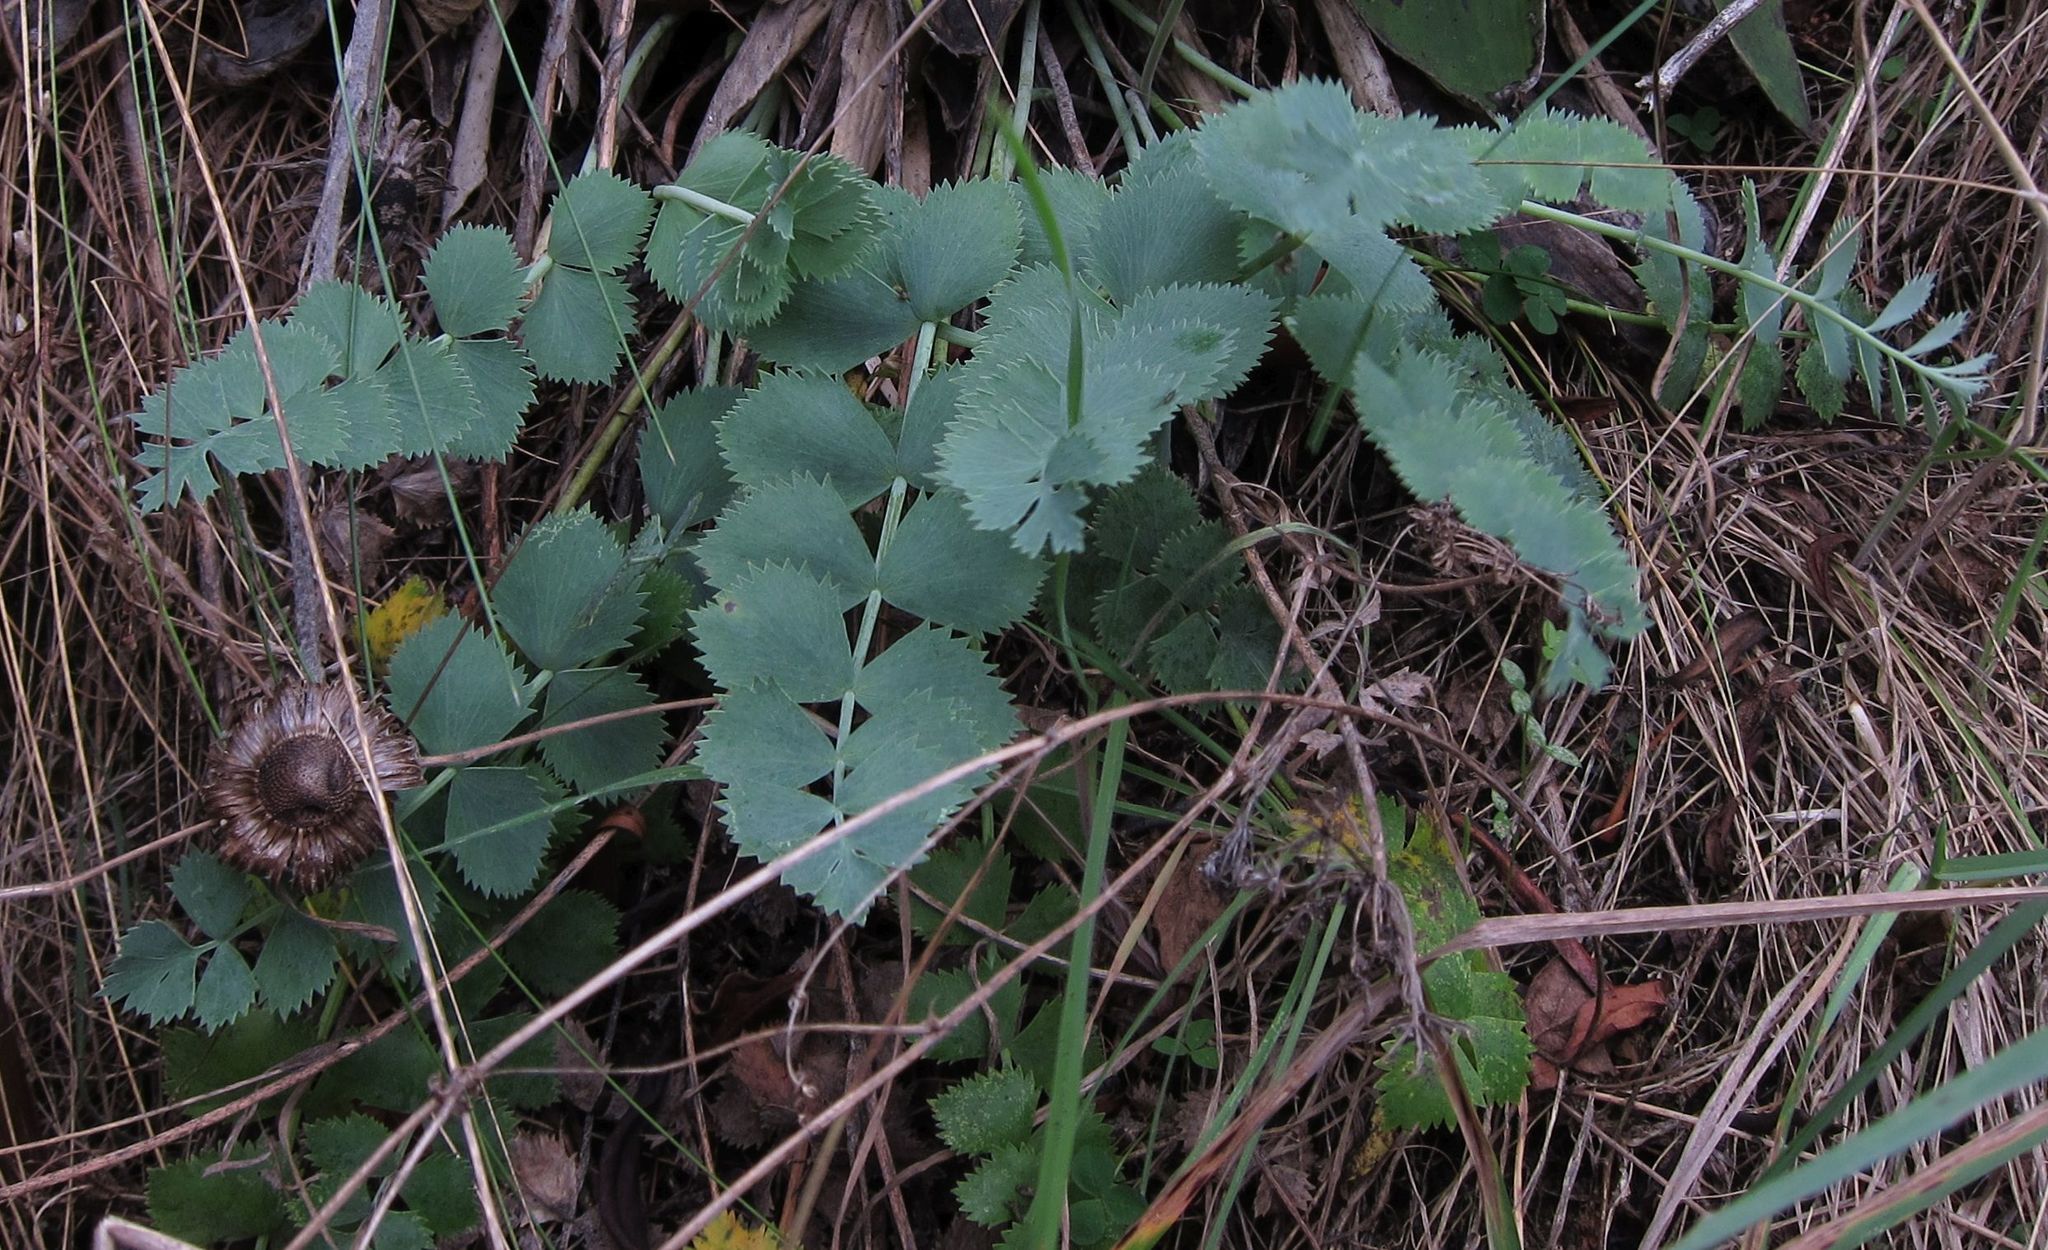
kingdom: Plantae
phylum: Tracheophyta
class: Magnoliopsida
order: Apiales
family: Apiaceae
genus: Gingidia
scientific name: Gingidia grisea
